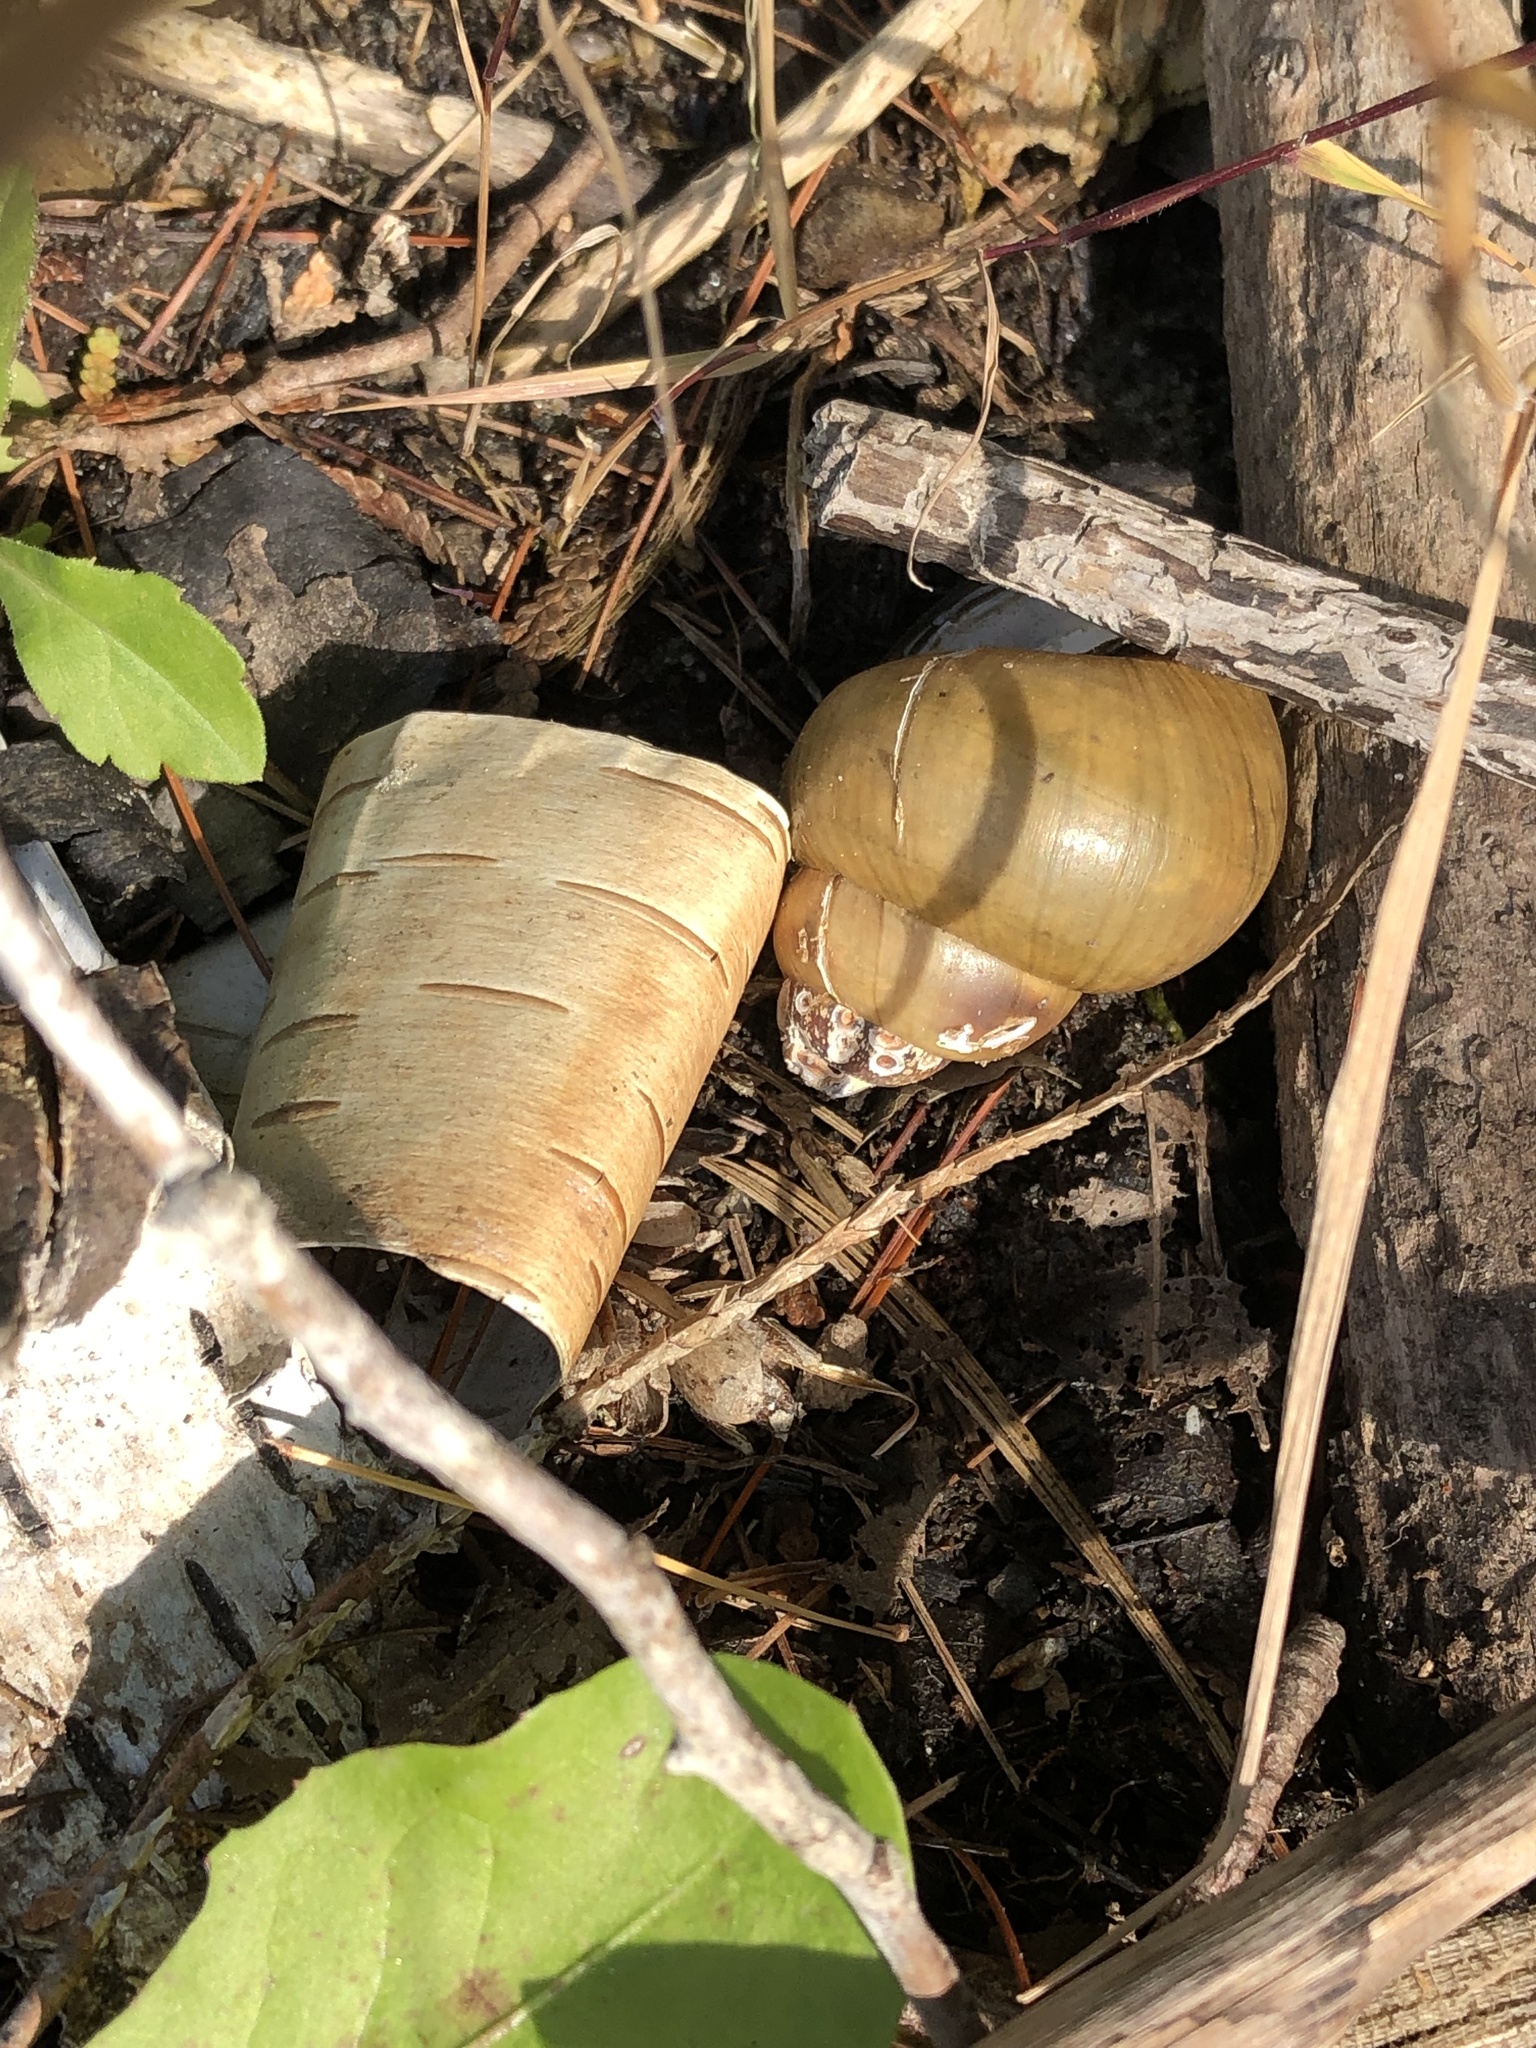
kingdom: Animalia
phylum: Mollusca
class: Gastropoda
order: Architaenioglossa
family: Viviparidae
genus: Cipangopaludina
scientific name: Cipangopaludina chinensis
